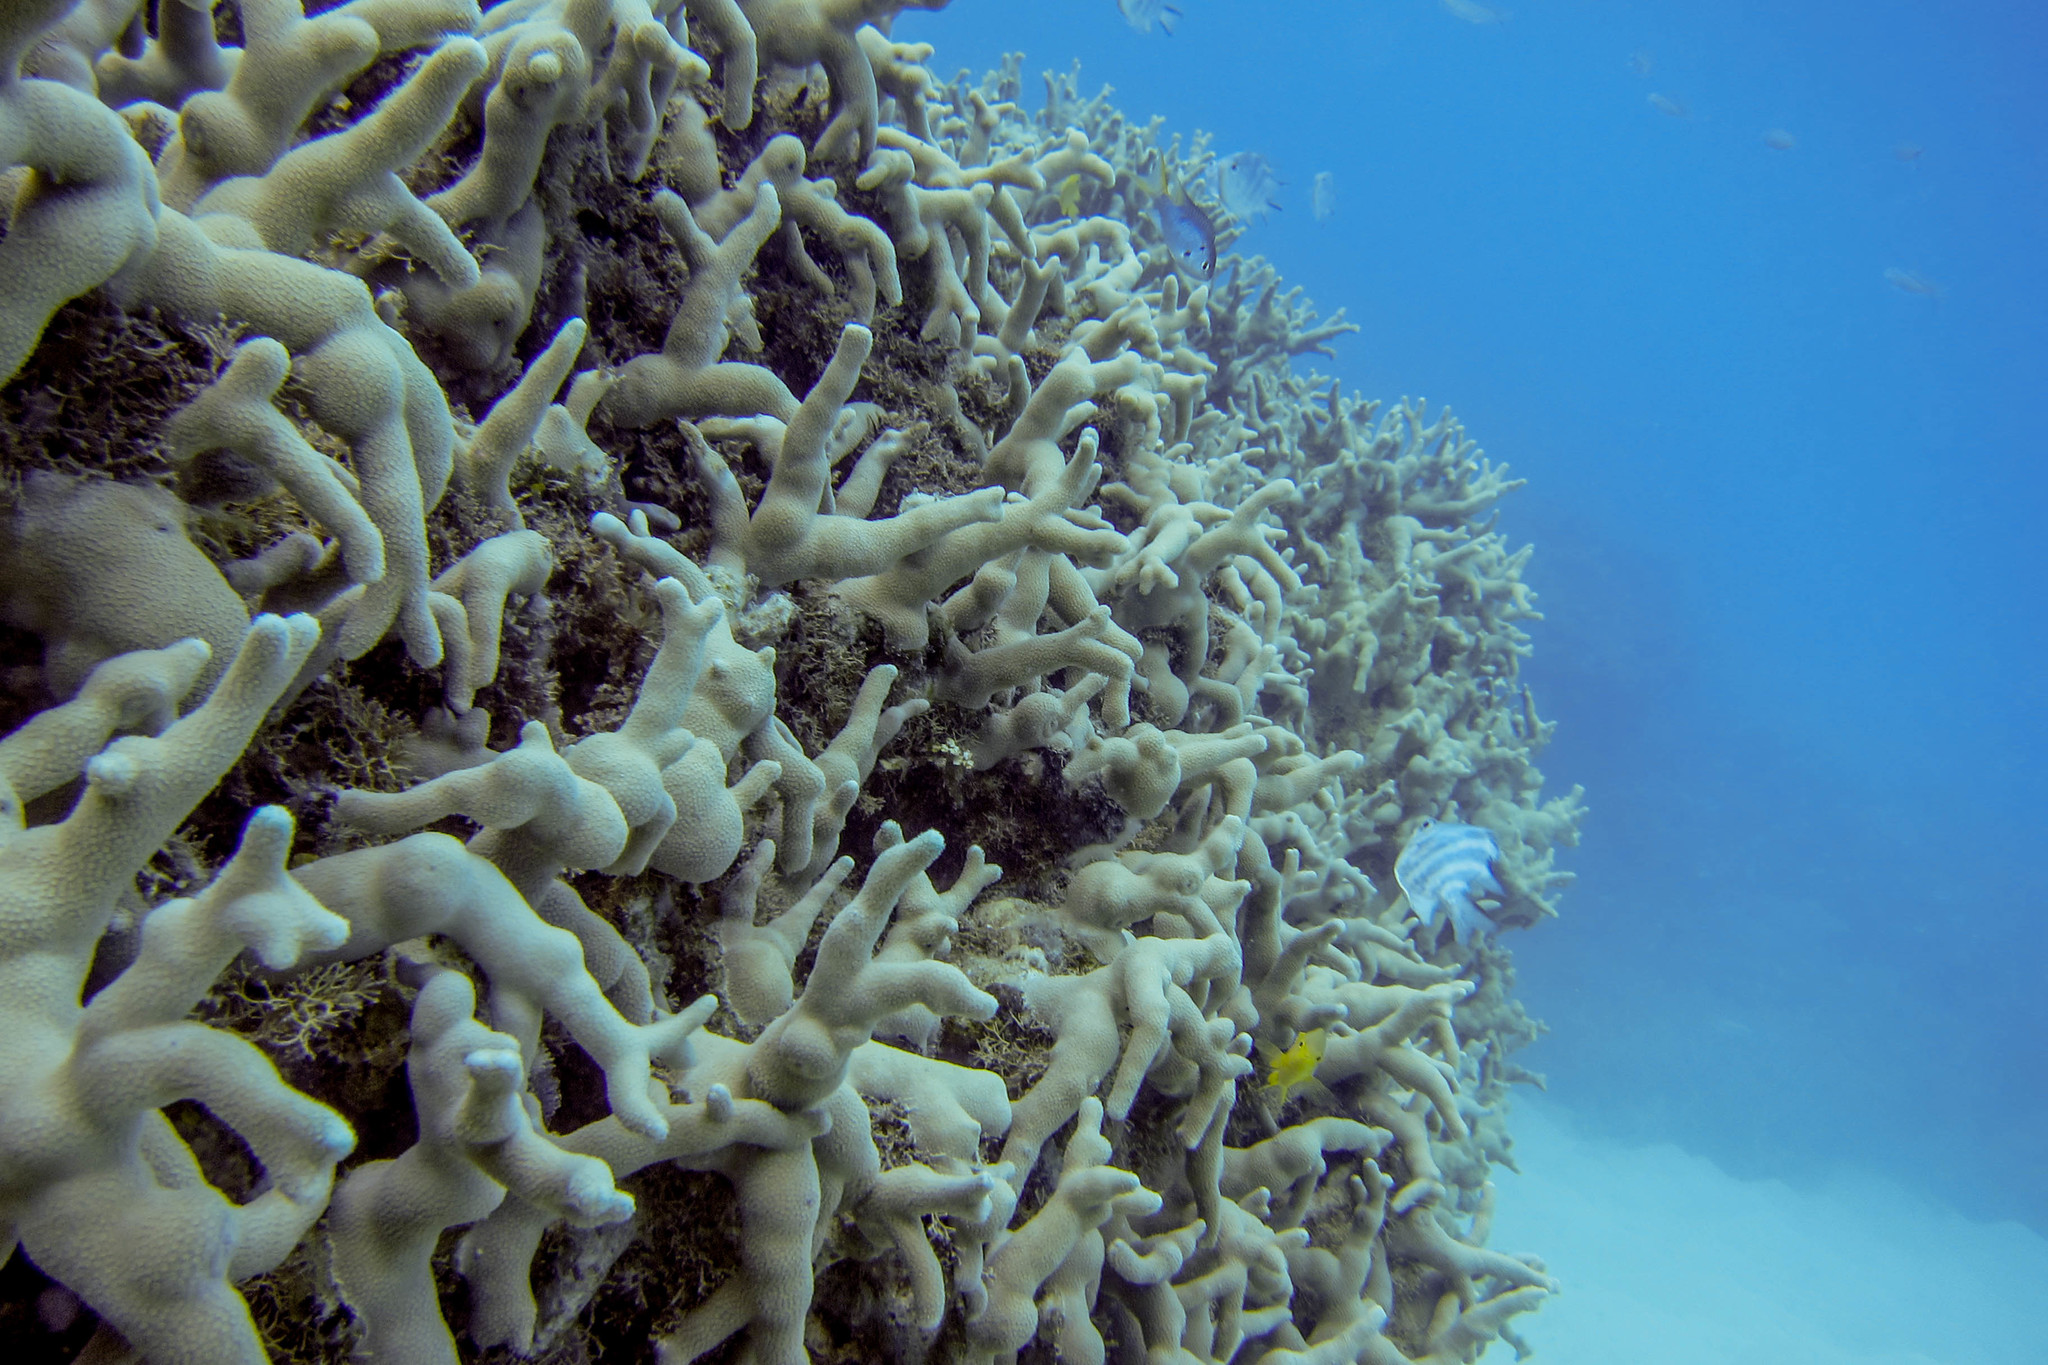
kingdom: Animalia
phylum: Chordata
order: Perciformes
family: Pomacentridae
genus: Neopomacentrus
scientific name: Neopomacentrus azysron
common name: Yellow-tail damsel
